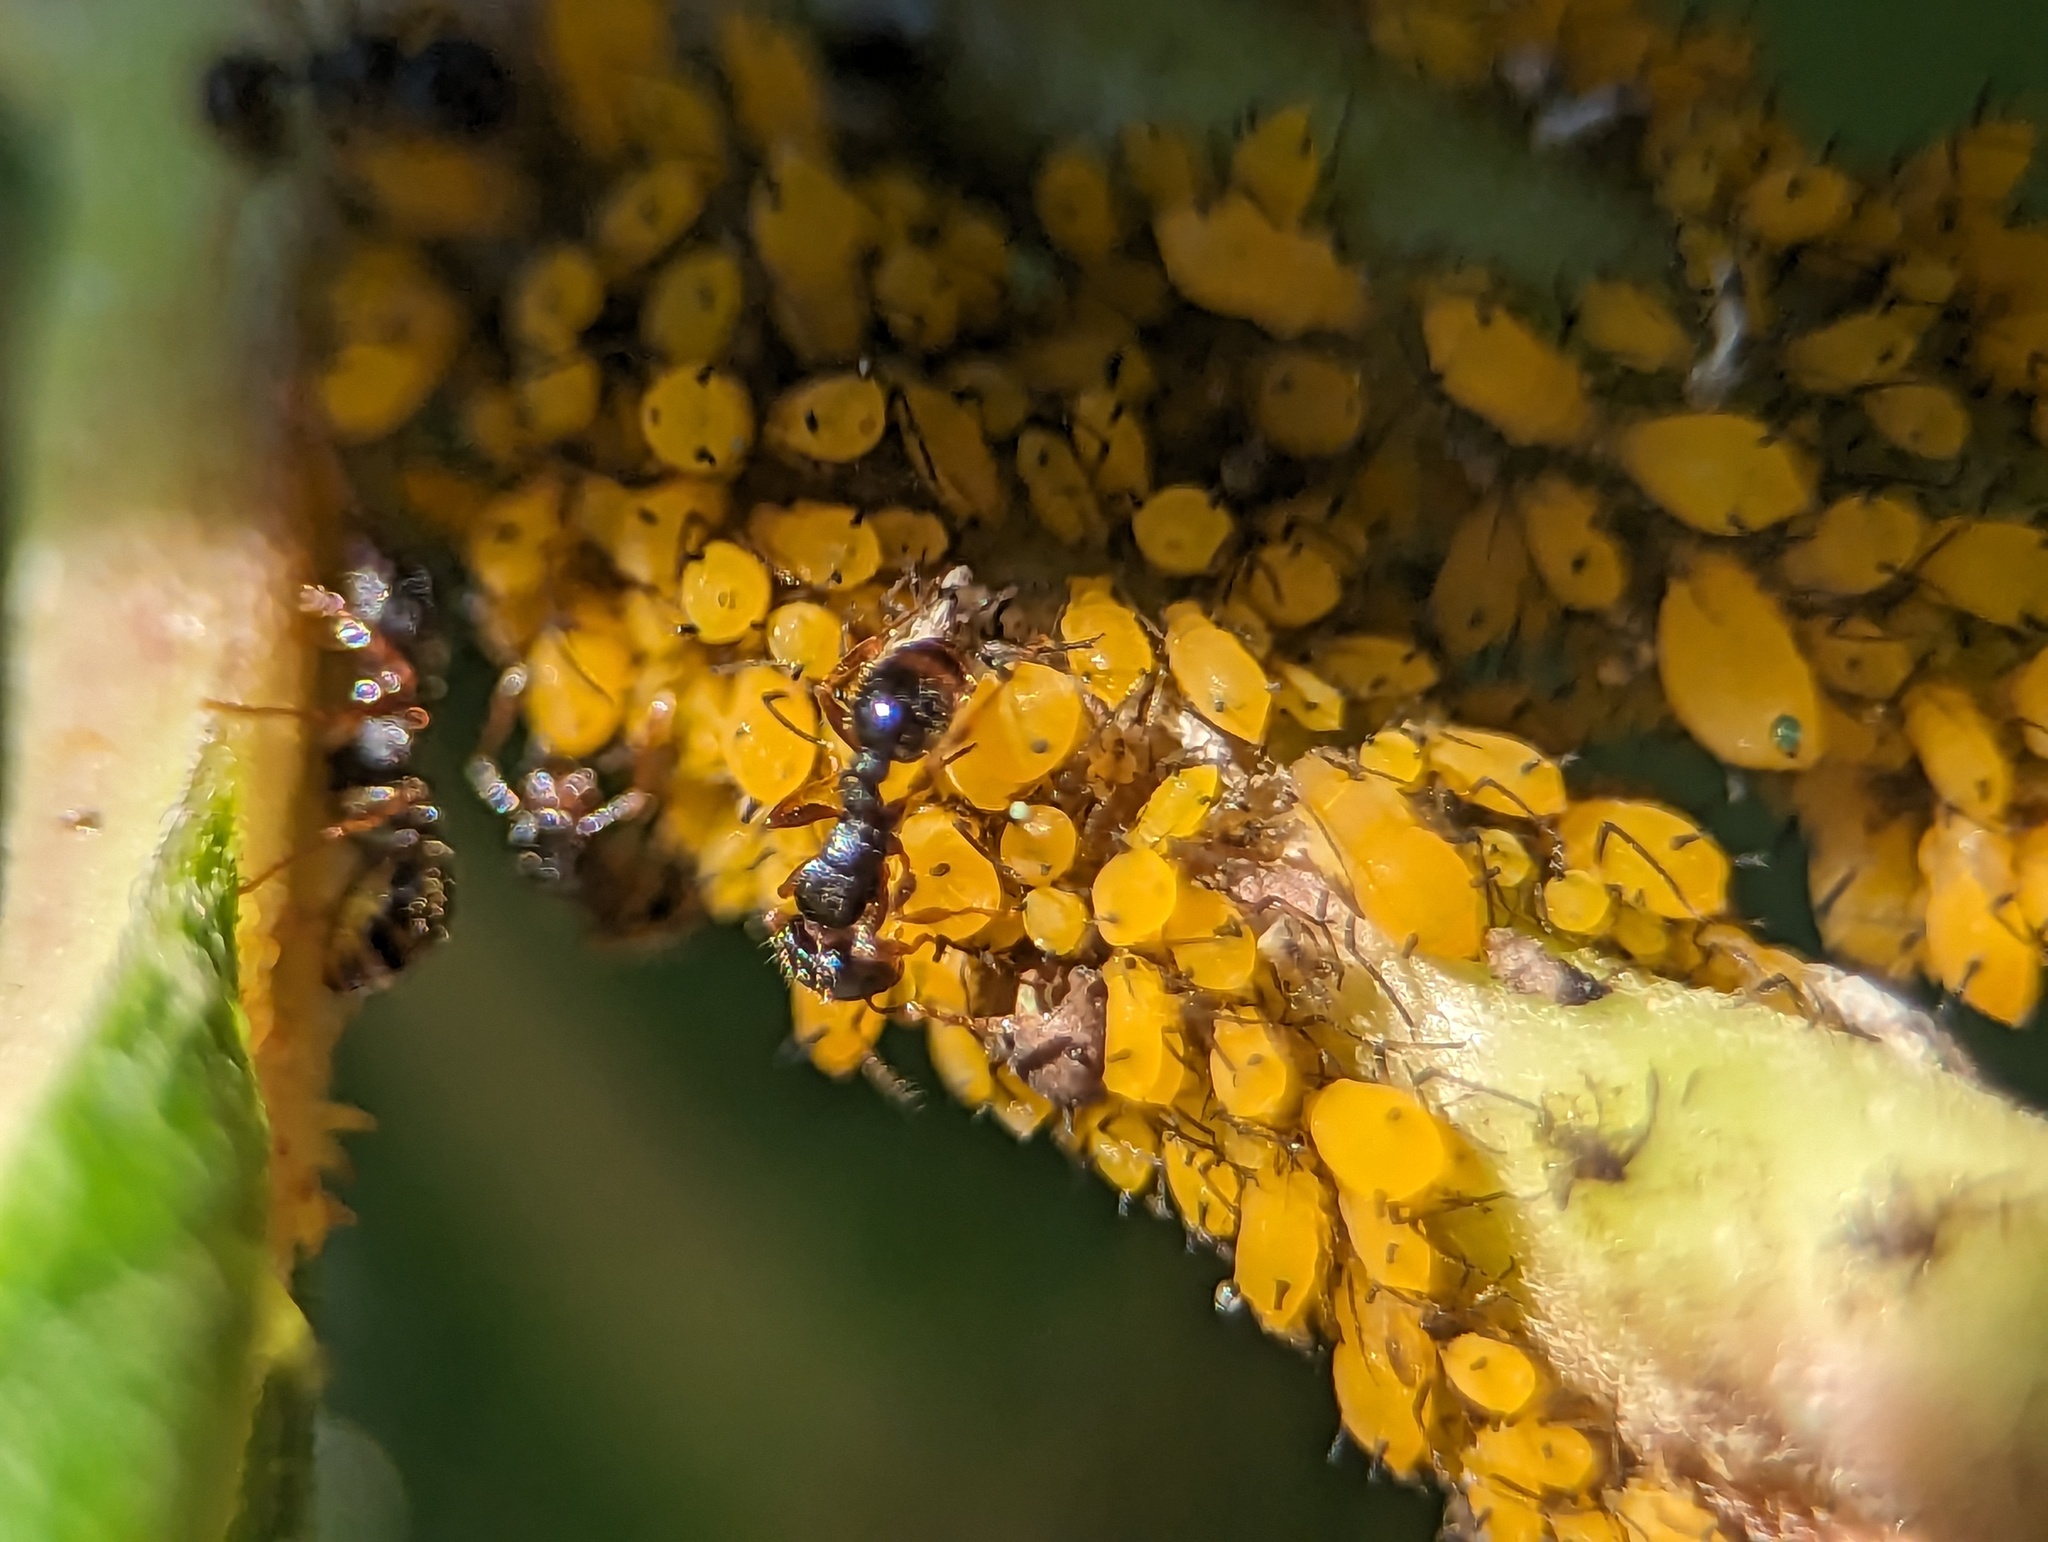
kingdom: Animalia
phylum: Arthropoda
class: Insecta
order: Hemiptera
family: Aphididae
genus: Aphis
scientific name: Aphis nerii
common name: Oleander aphid
